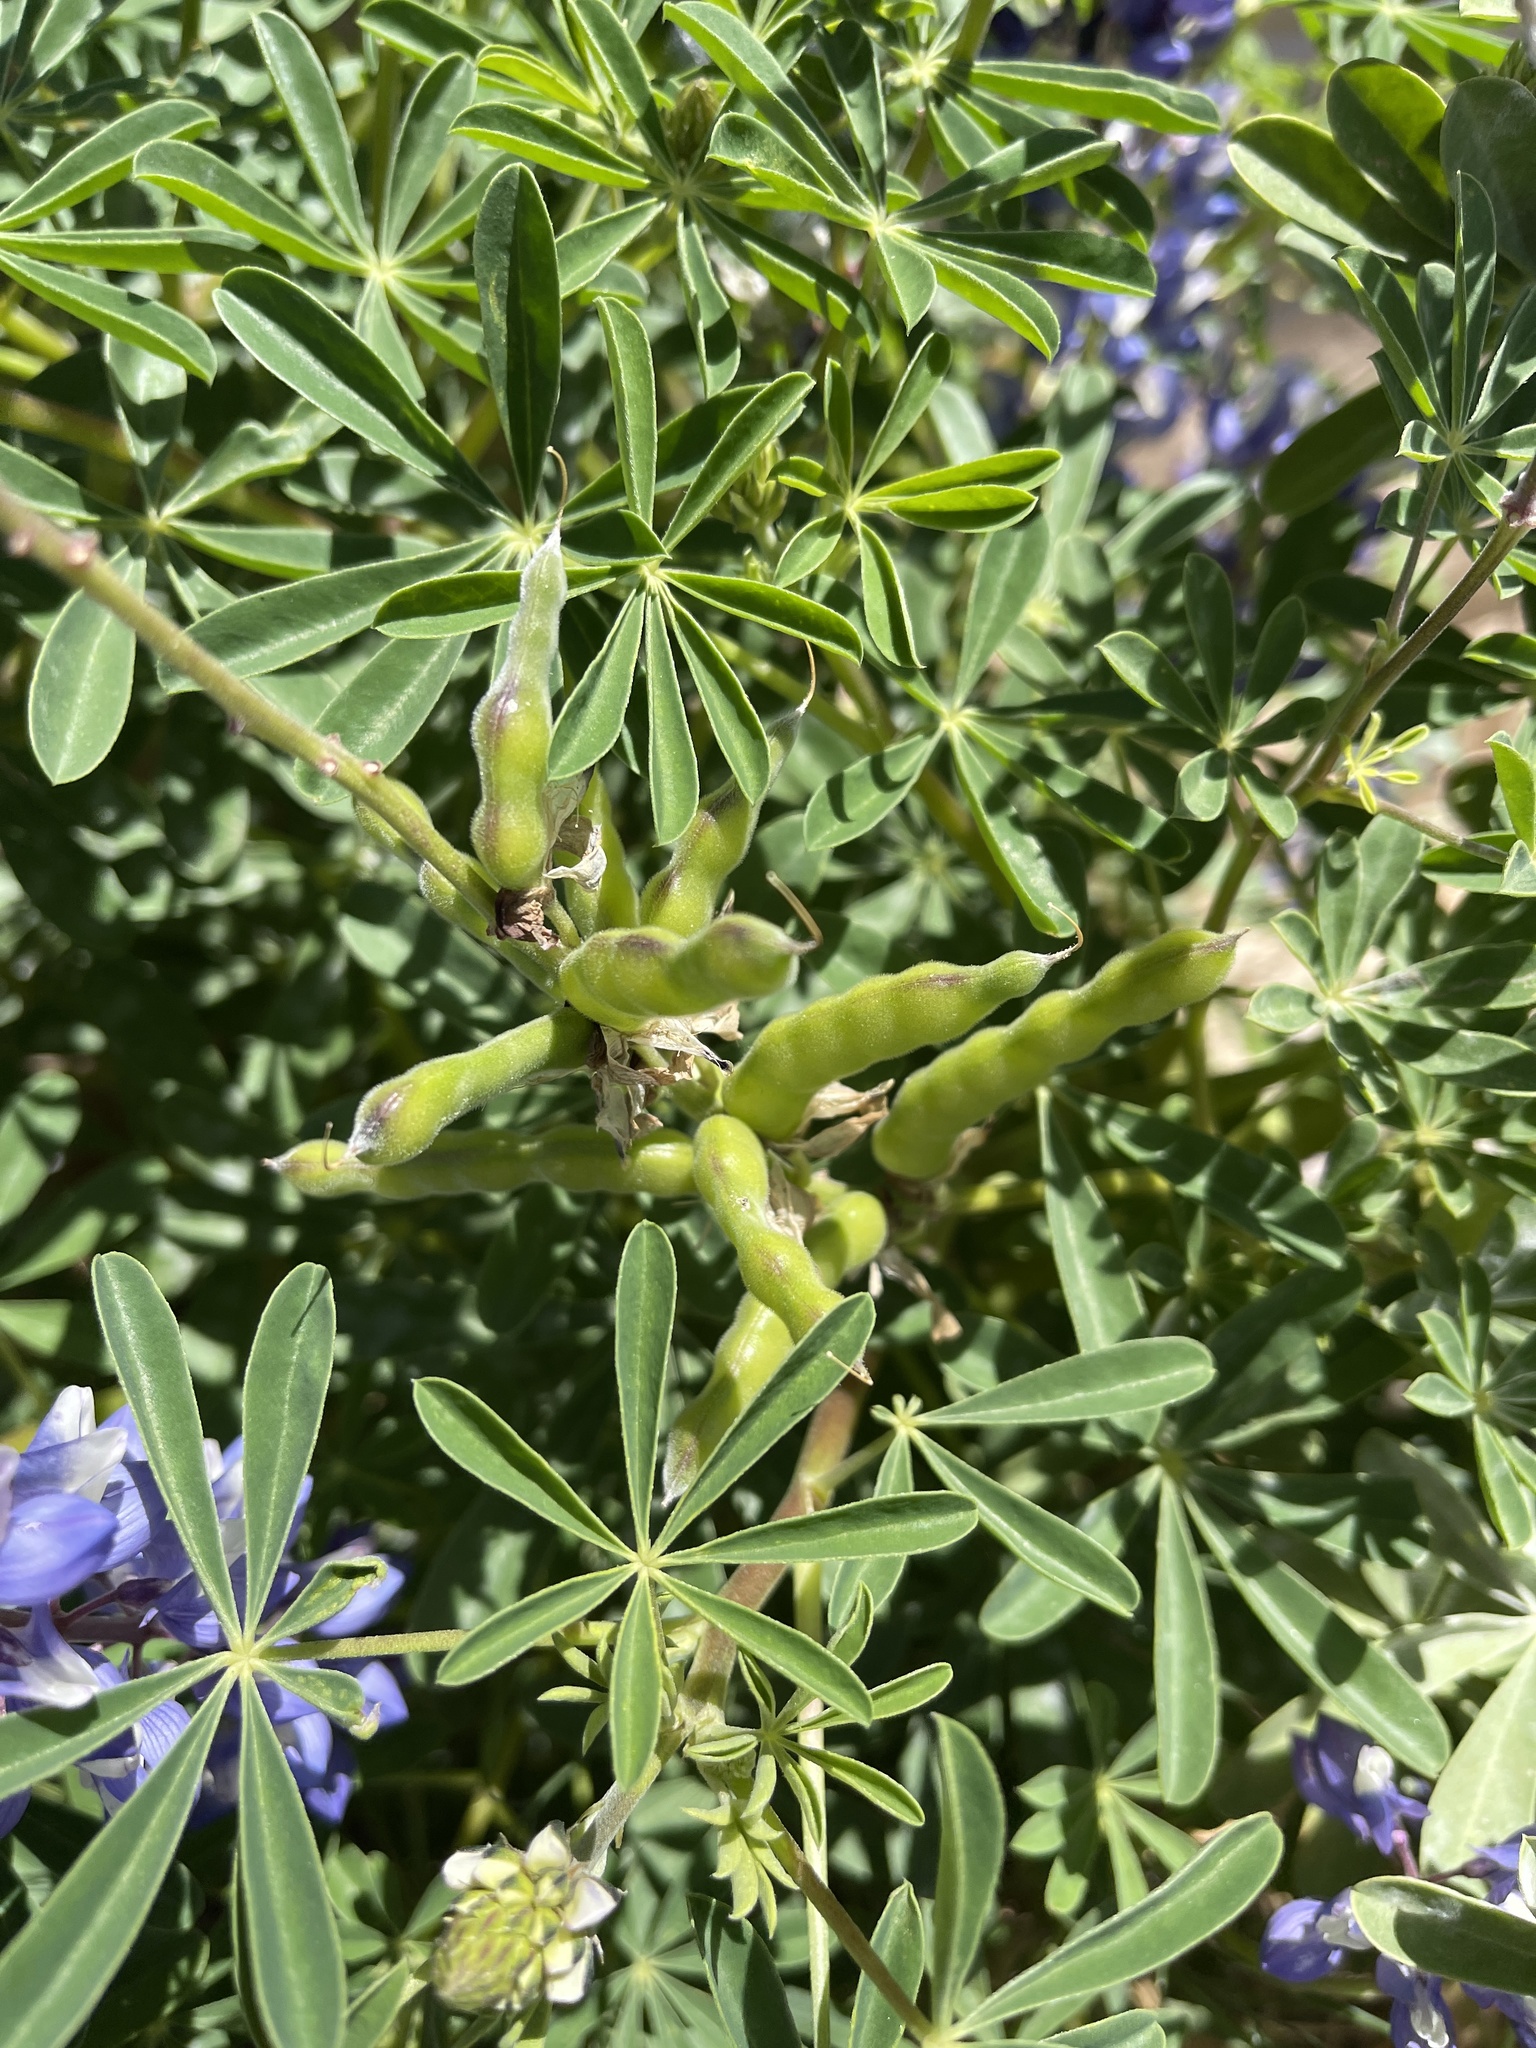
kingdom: Plantae
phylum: Tracheophyta
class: Magnoliopsida
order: Fabales
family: Fabaceae
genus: Lupinus
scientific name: Lupinus succulentus
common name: Arroyo lupine
